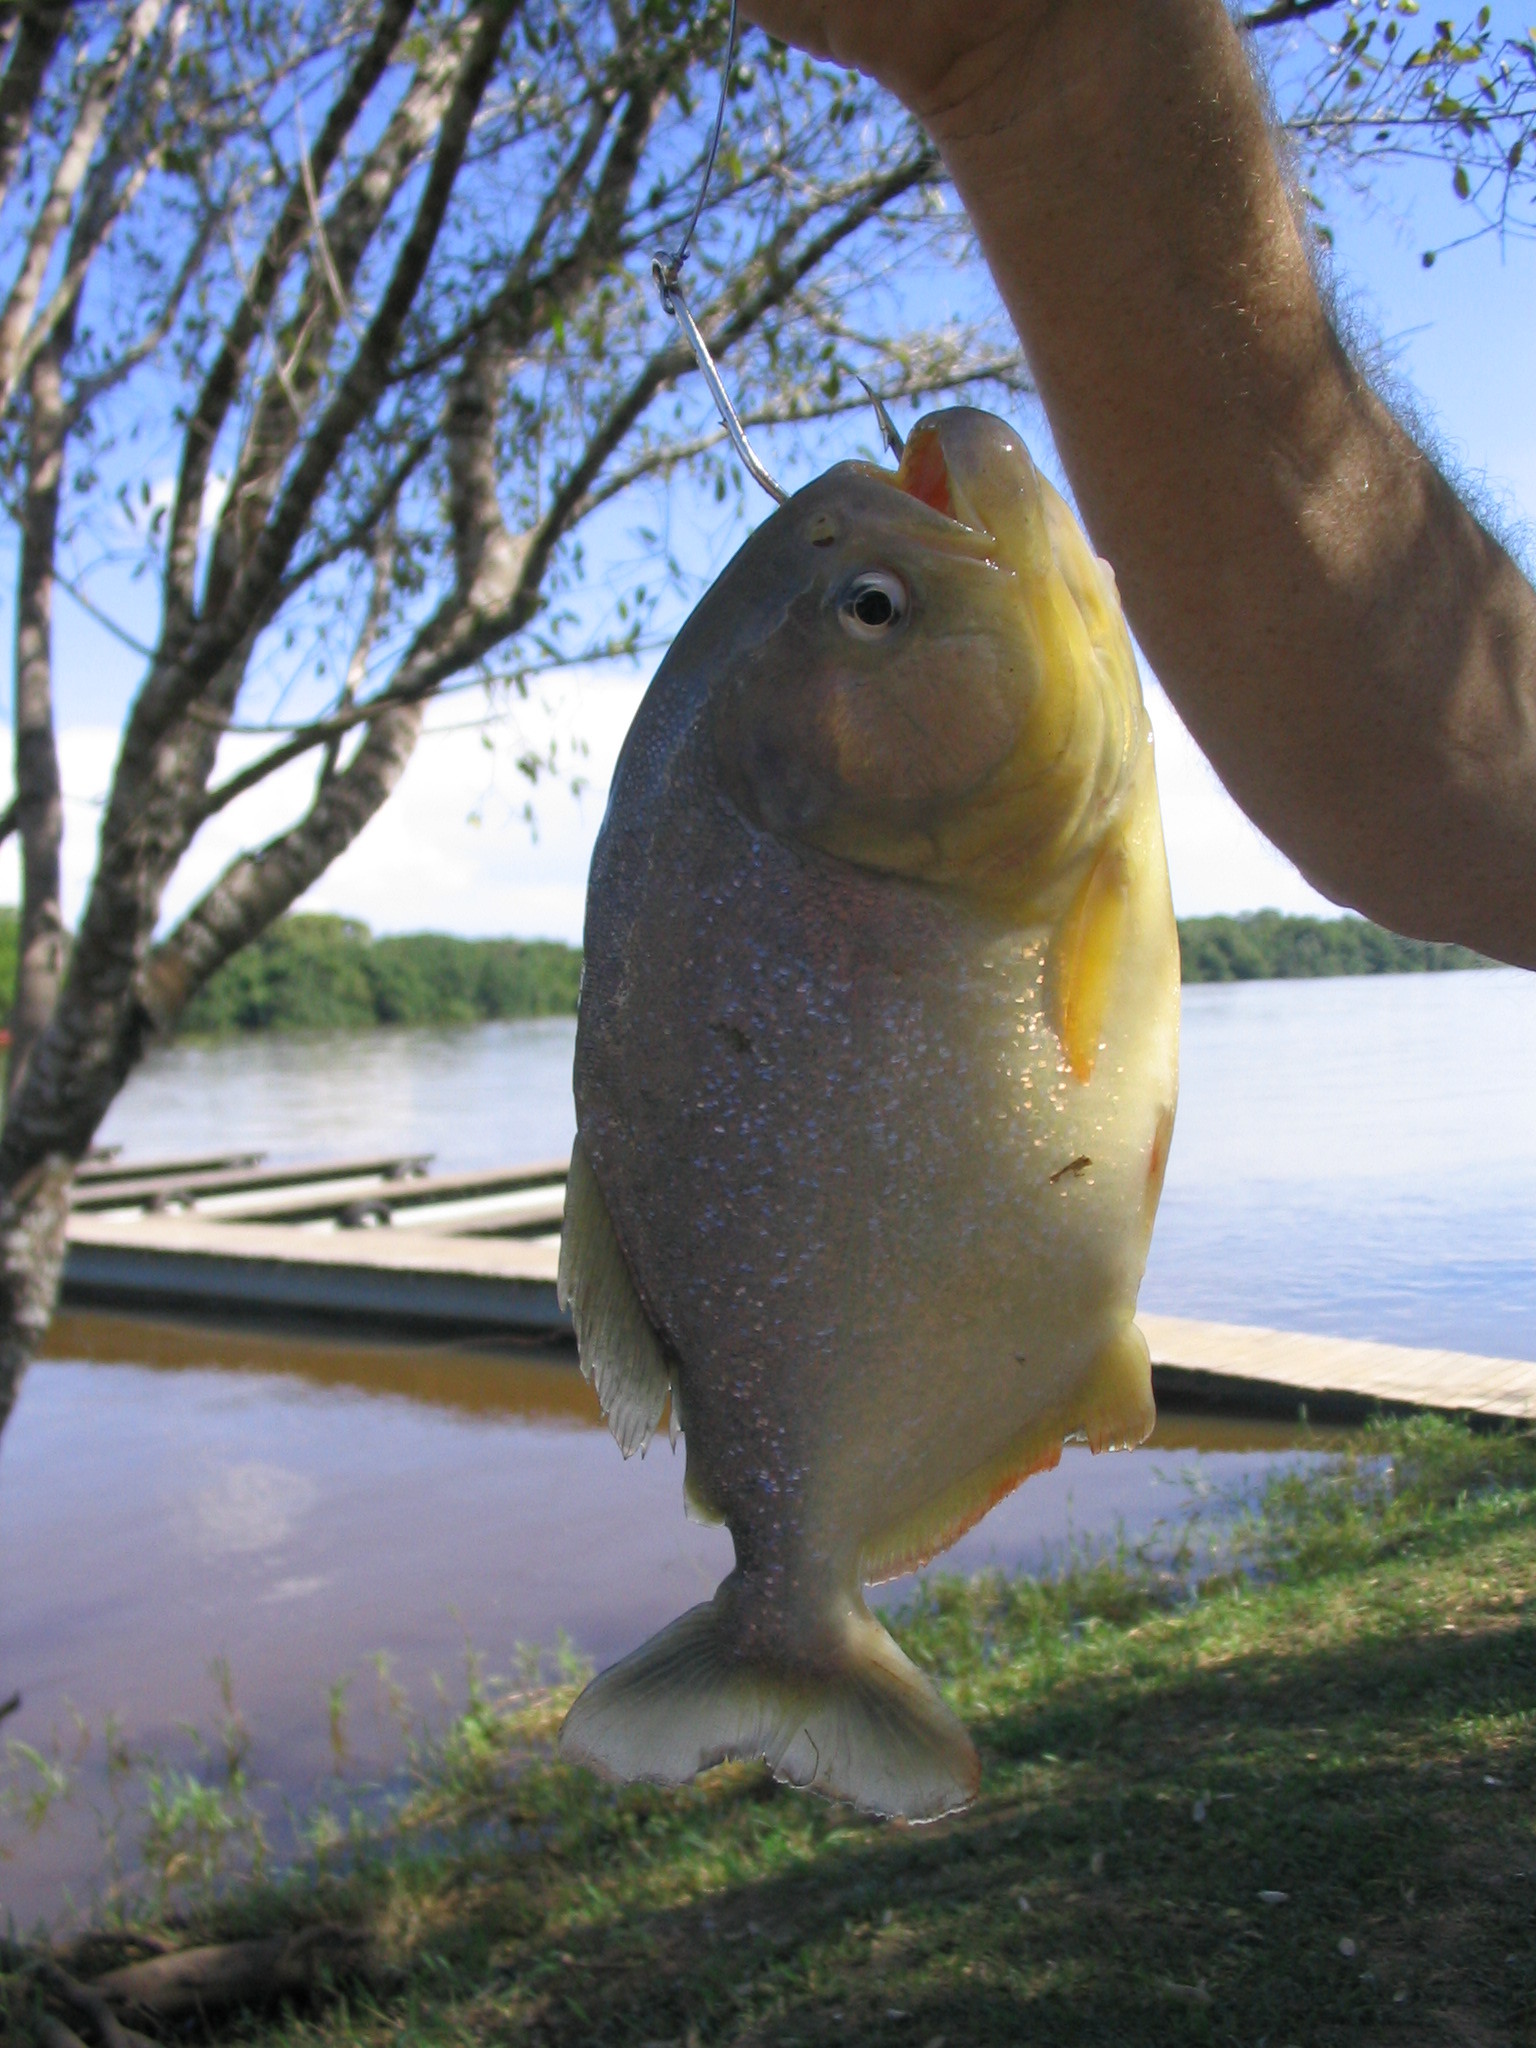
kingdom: Animalia
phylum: Chordata
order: Characiformes
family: Serrasalmidae
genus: Pygocentrus
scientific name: Pygocentrus nattereri
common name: Piranha
